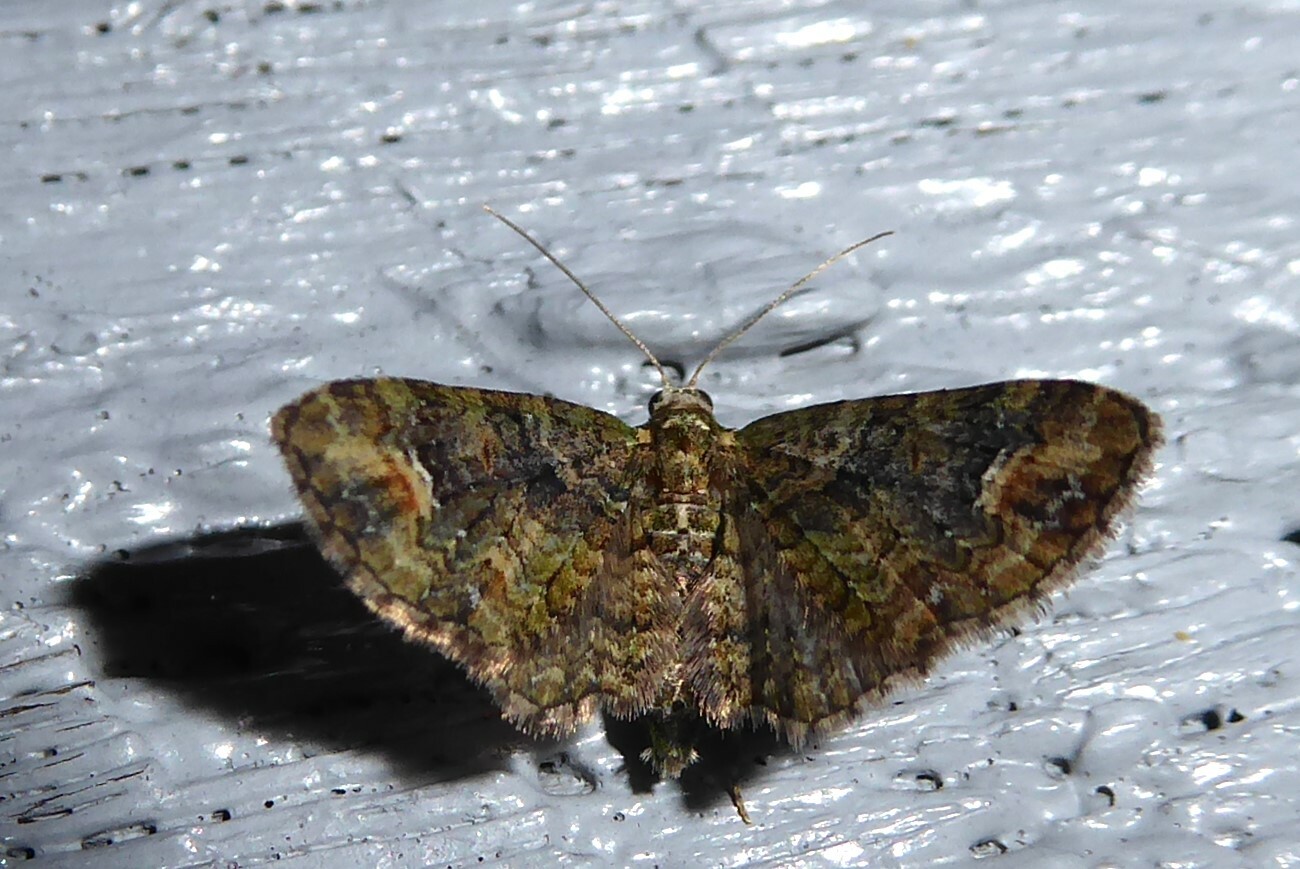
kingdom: Animalia
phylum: Arthropoda
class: Insecta
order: Lepidoptera
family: Geometridae
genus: Idaea
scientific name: Idaea mutanda
